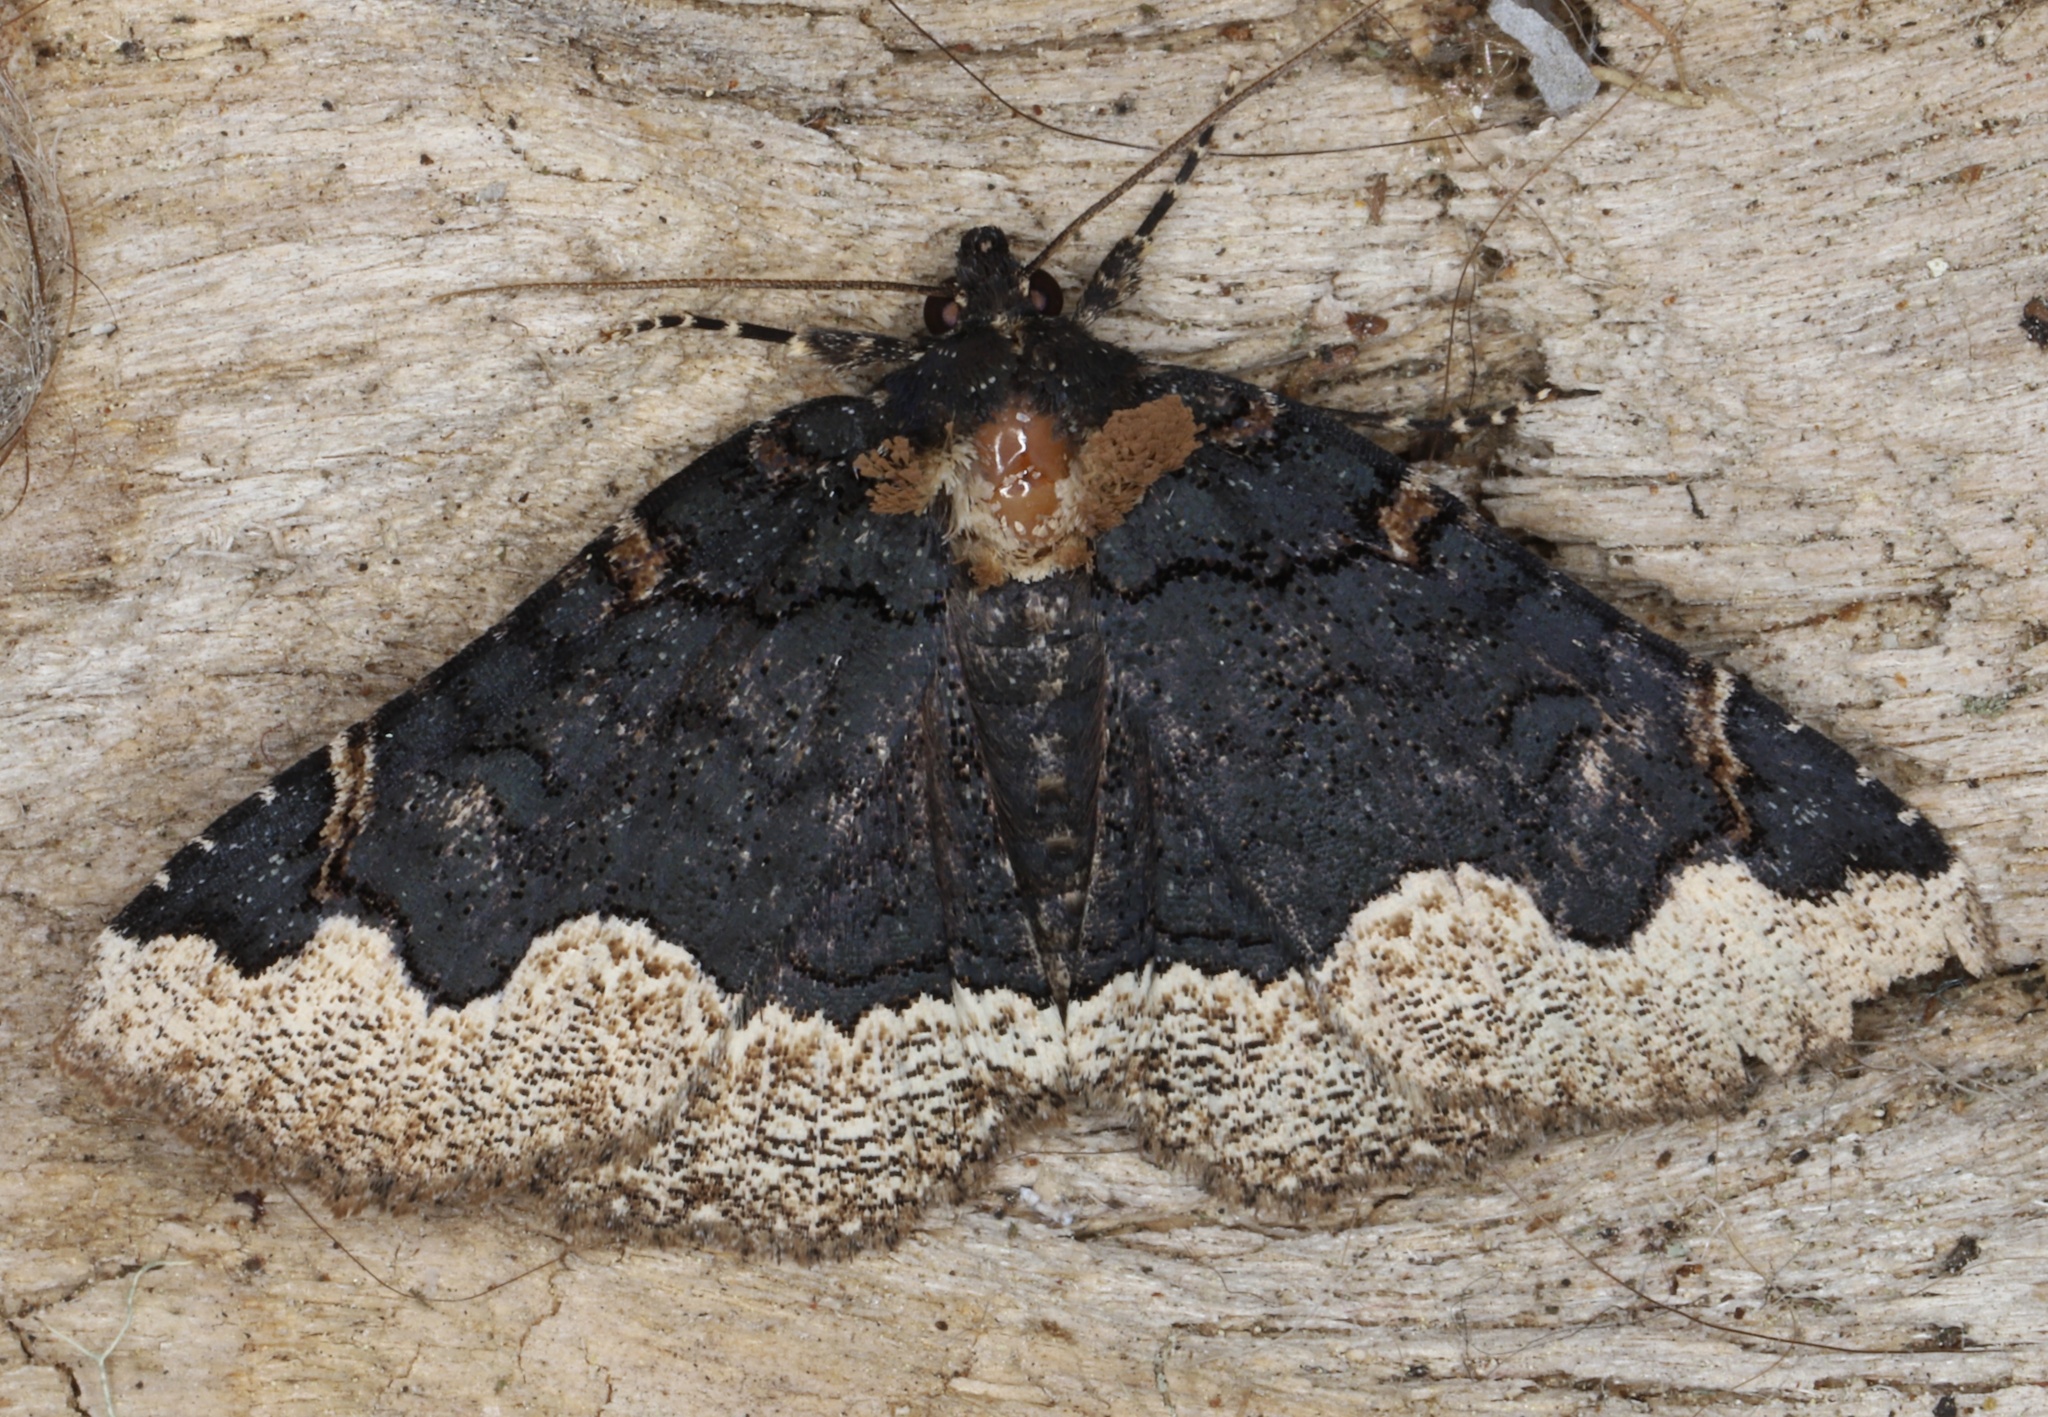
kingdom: Animalia
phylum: Arthropoda
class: Insecta
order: Lepidoptera
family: Erebidae
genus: Zale
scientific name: Zale horrida
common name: Horrid zale moth
